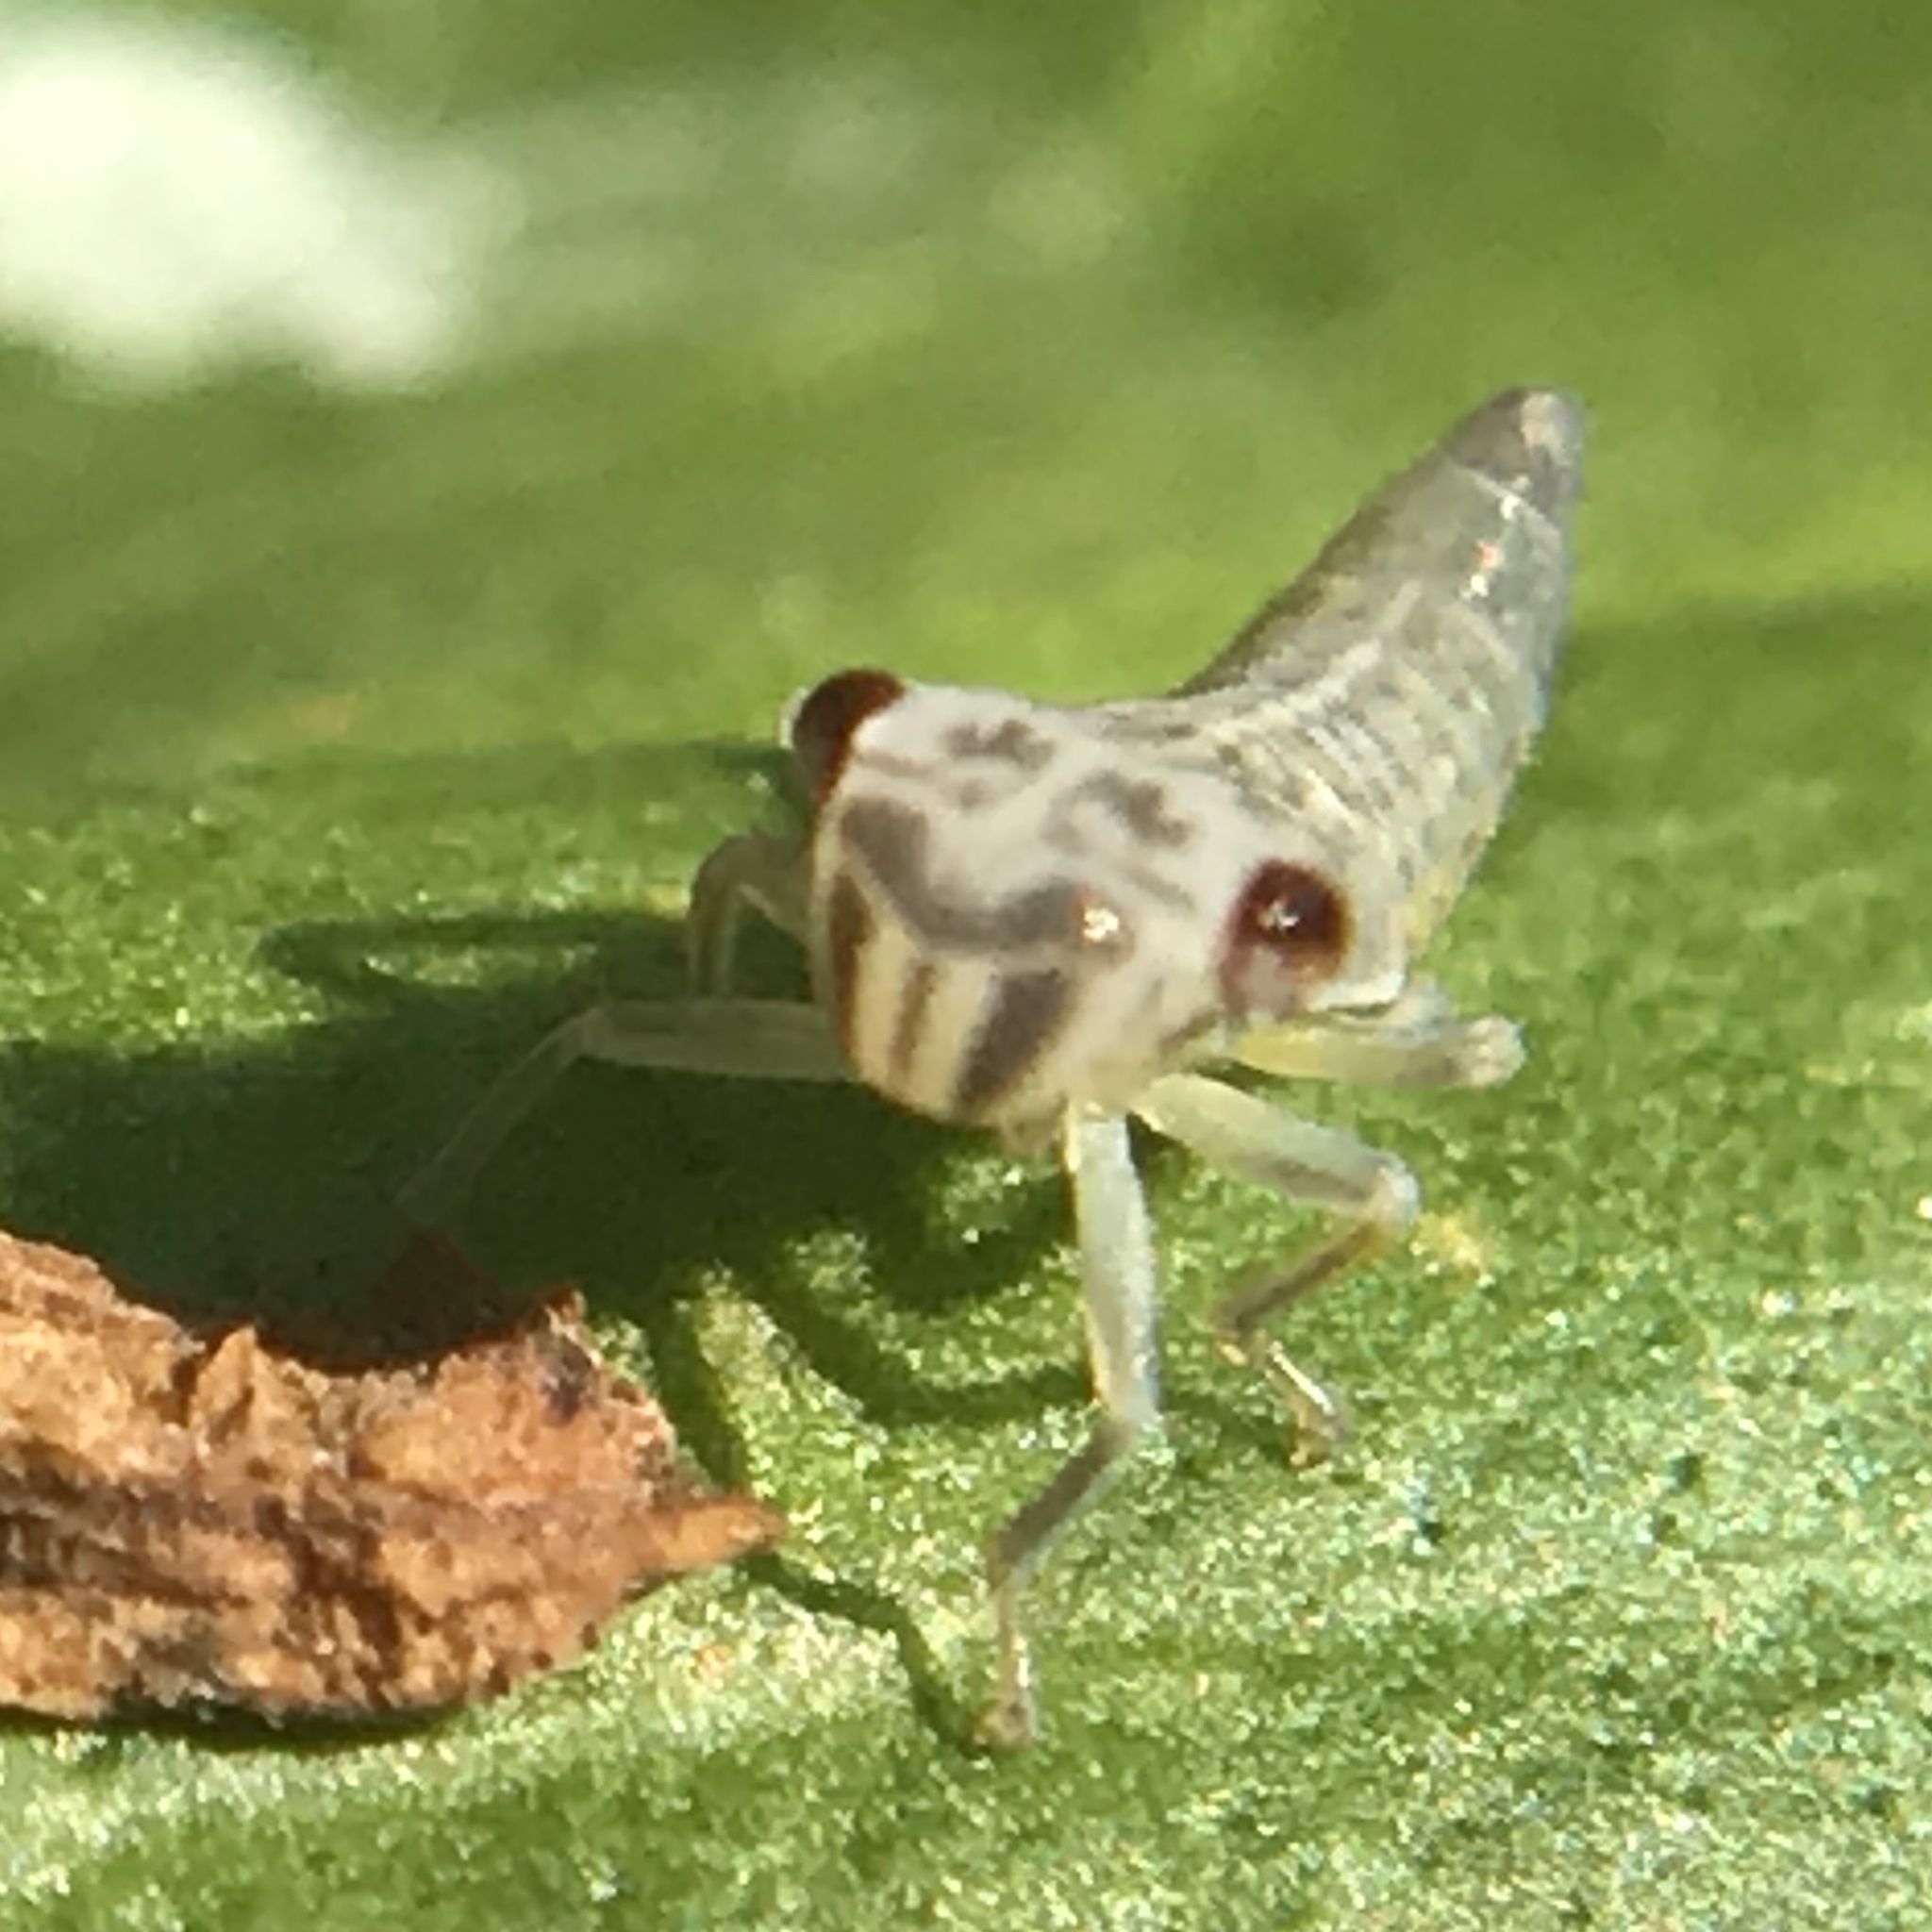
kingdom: Animalia
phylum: Arthropoda
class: Insecta
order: Hemiptera
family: Cicadellidae
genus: Oncometopia
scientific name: Oncometopia orbona
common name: Broad-headed sharpshooter
